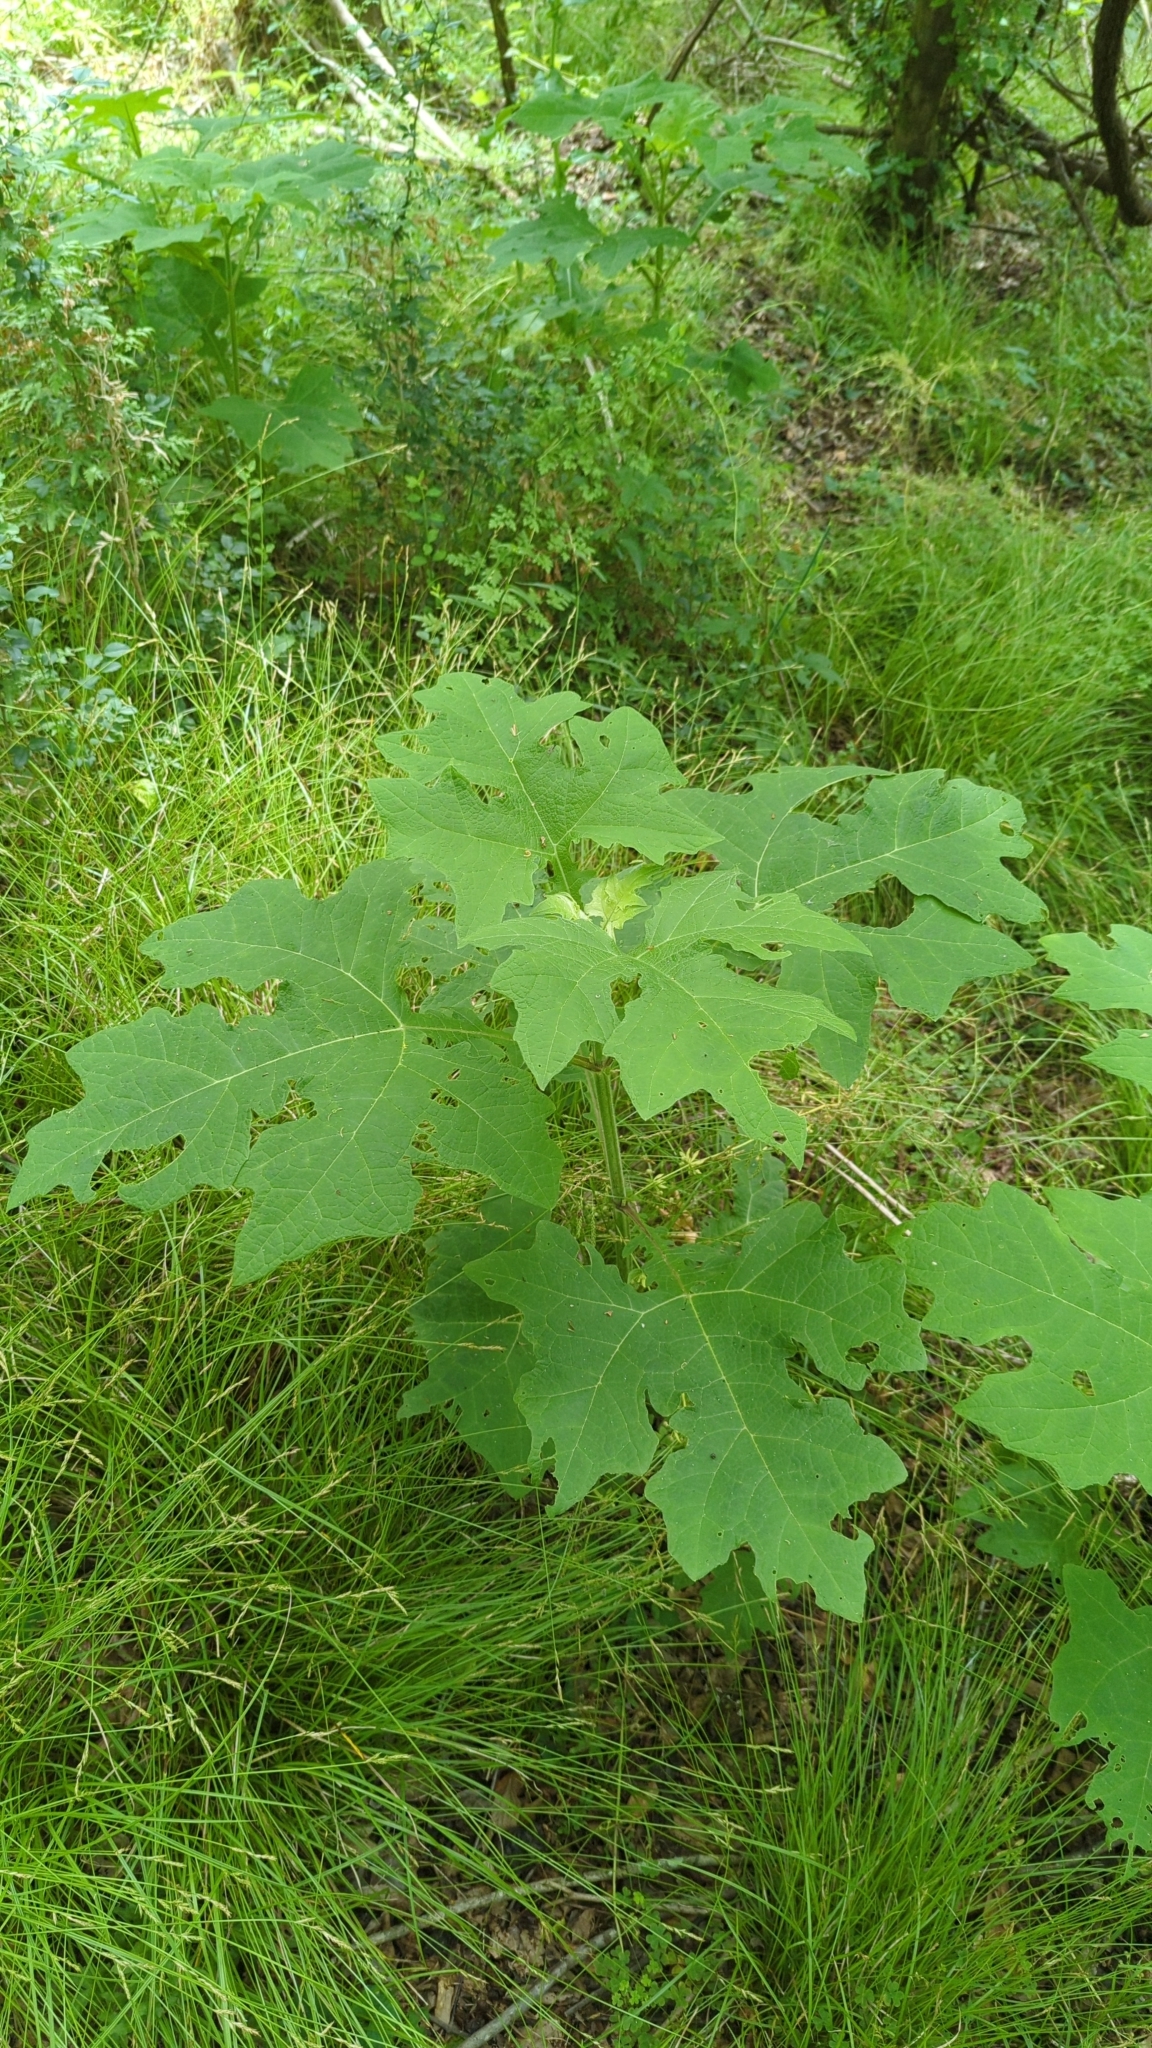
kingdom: Plantae
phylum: Tracheophyta
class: Magnoliopsida
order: Asterales
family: Asteraceae
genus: Smallanthus
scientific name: Smallanthus uvedalia
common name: Bear's-foot
